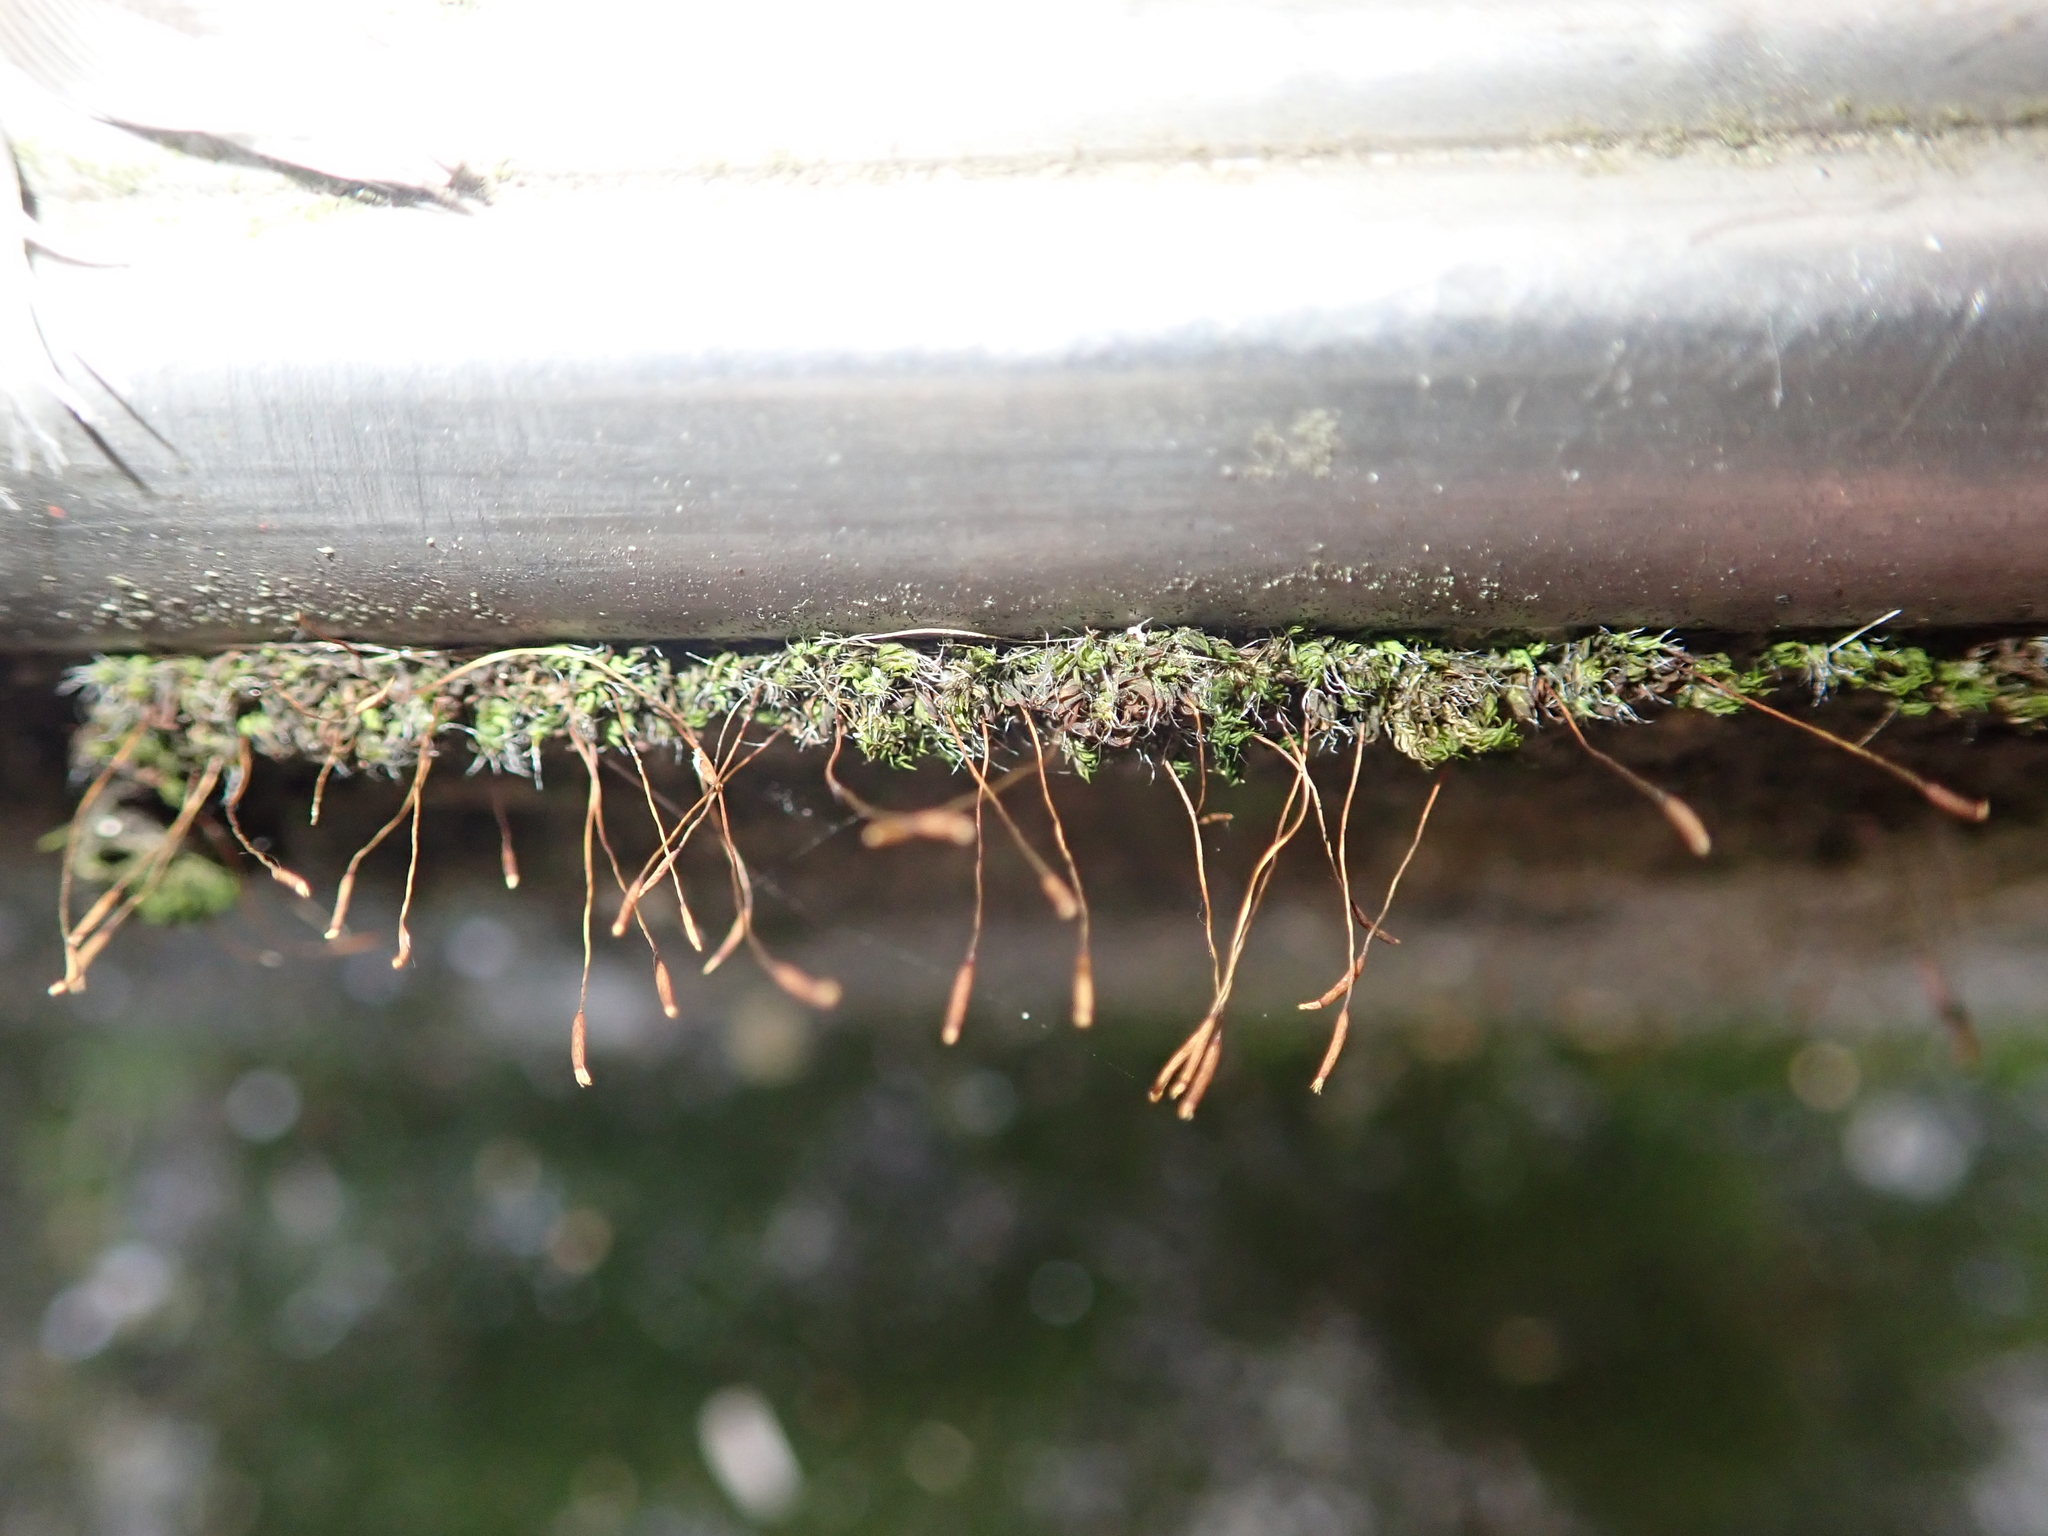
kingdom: Plantae
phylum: Bryophyta
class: Bryopsida
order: Pottiales
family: Pottiaceae
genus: Tortula
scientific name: Tortula muralis
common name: Wall screw-moss
